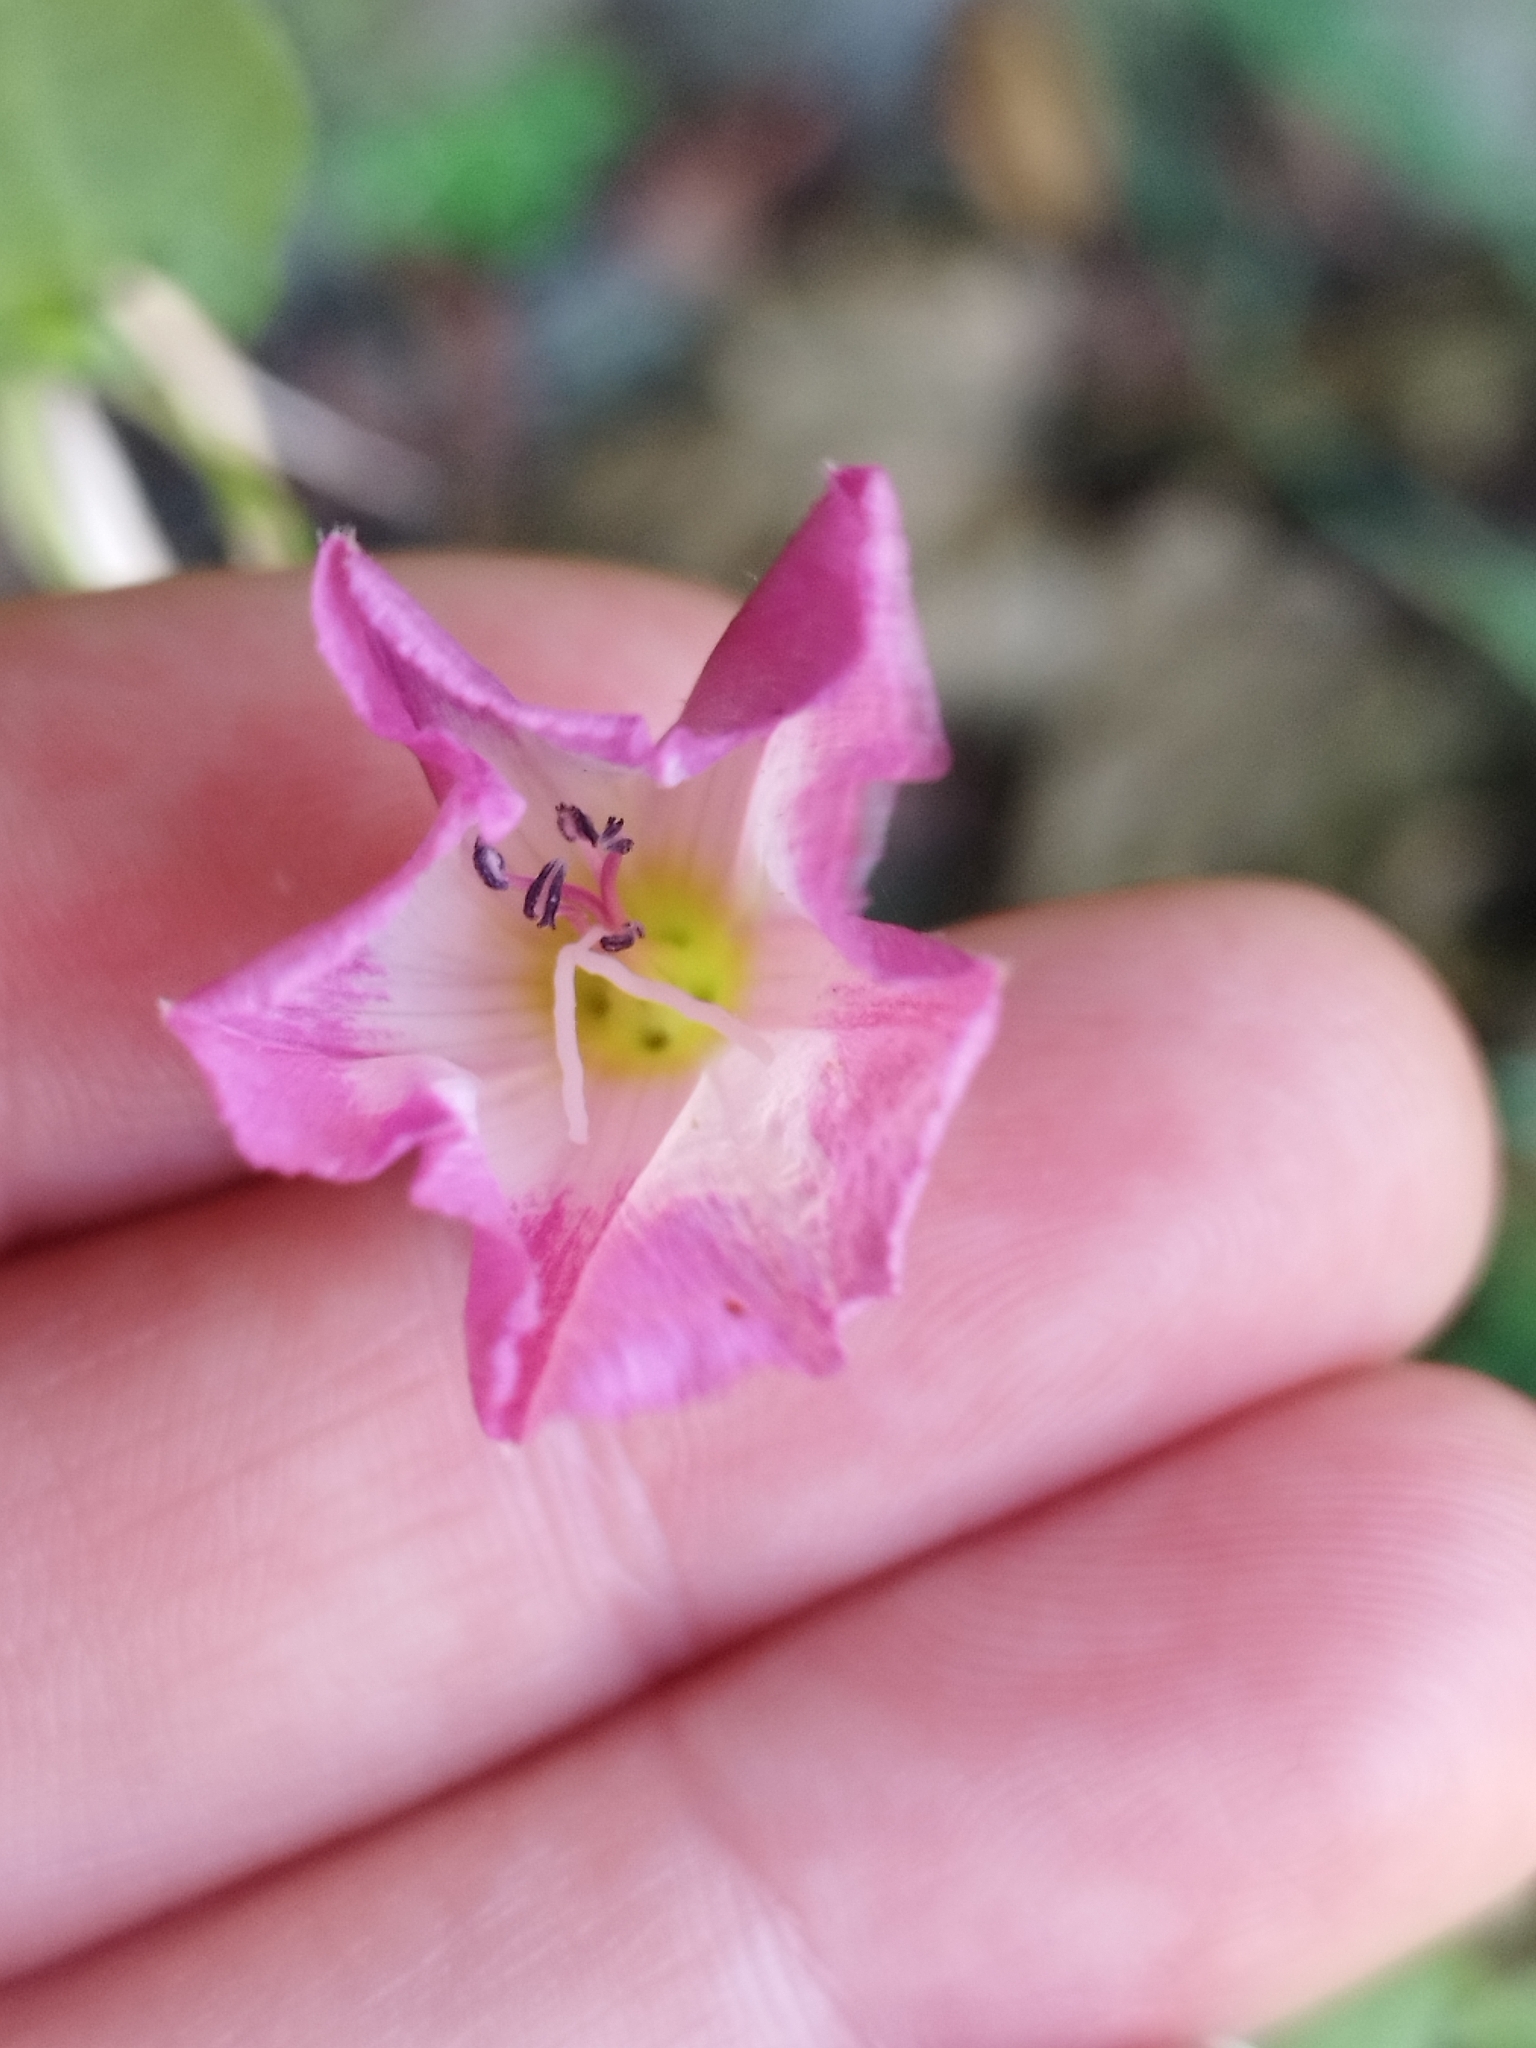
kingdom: Plantae
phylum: Tracheophyta
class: Magnoliopsida
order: Solanales
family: Convolvulaceae
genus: Convolvulus
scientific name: Convolvulus arvensis
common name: Field bindweed
